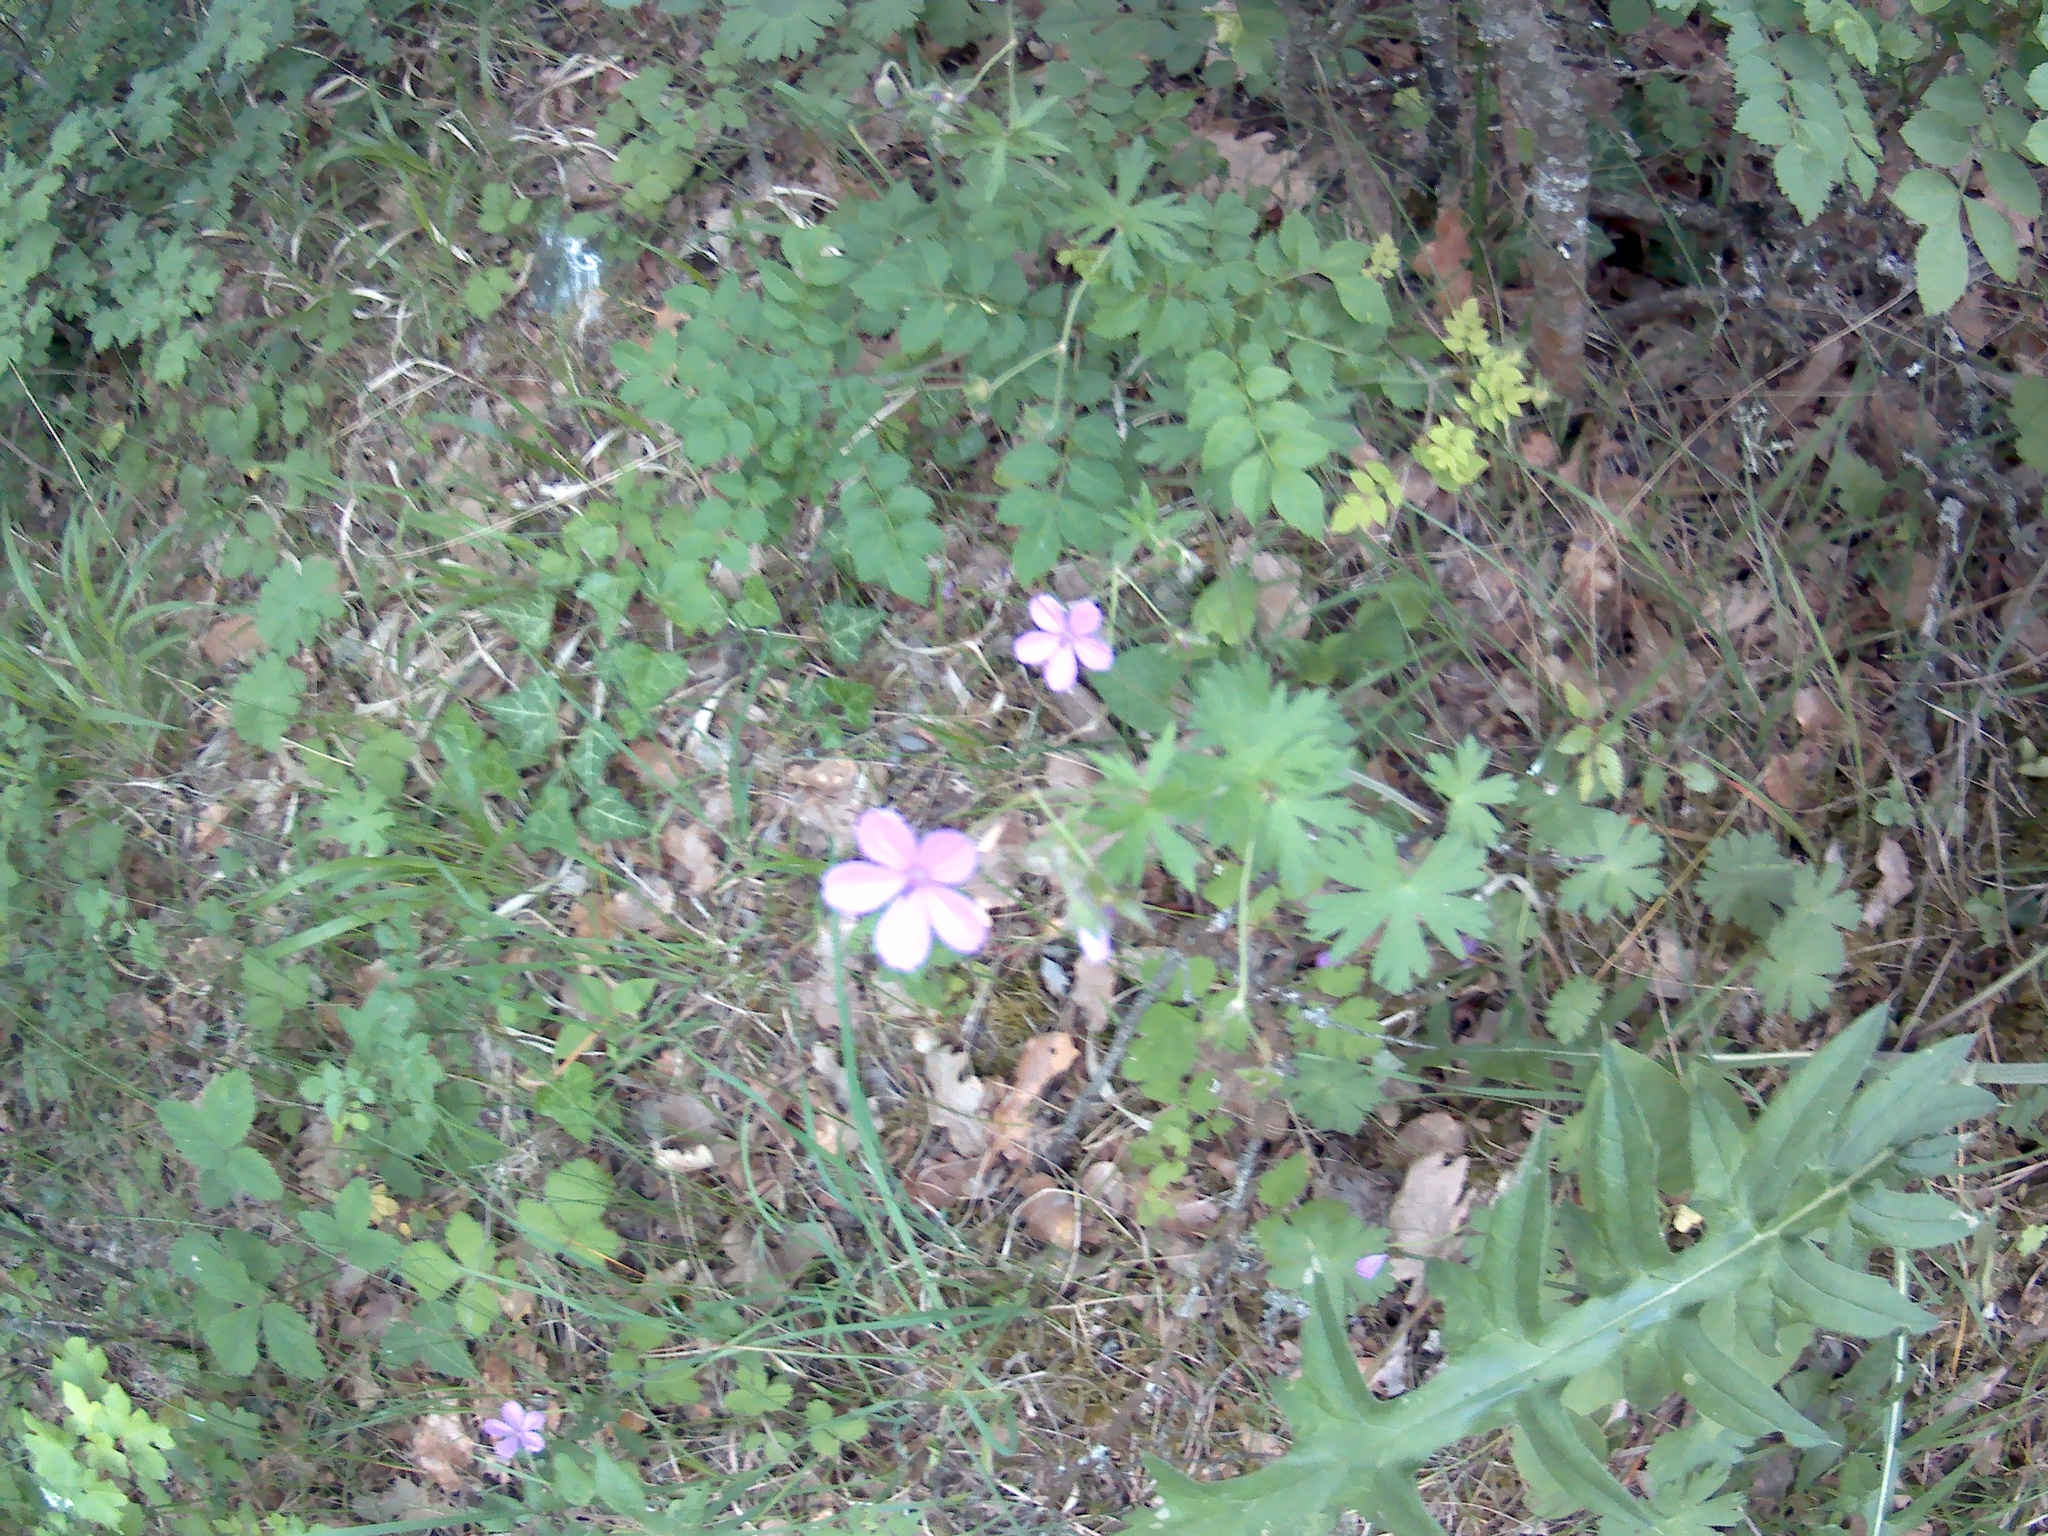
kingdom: Plantae
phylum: Tracheophyta
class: Magnoliopsida
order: Geraniales
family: Geraniaceae
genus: Geranium
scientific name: Geranium asphodeloides
